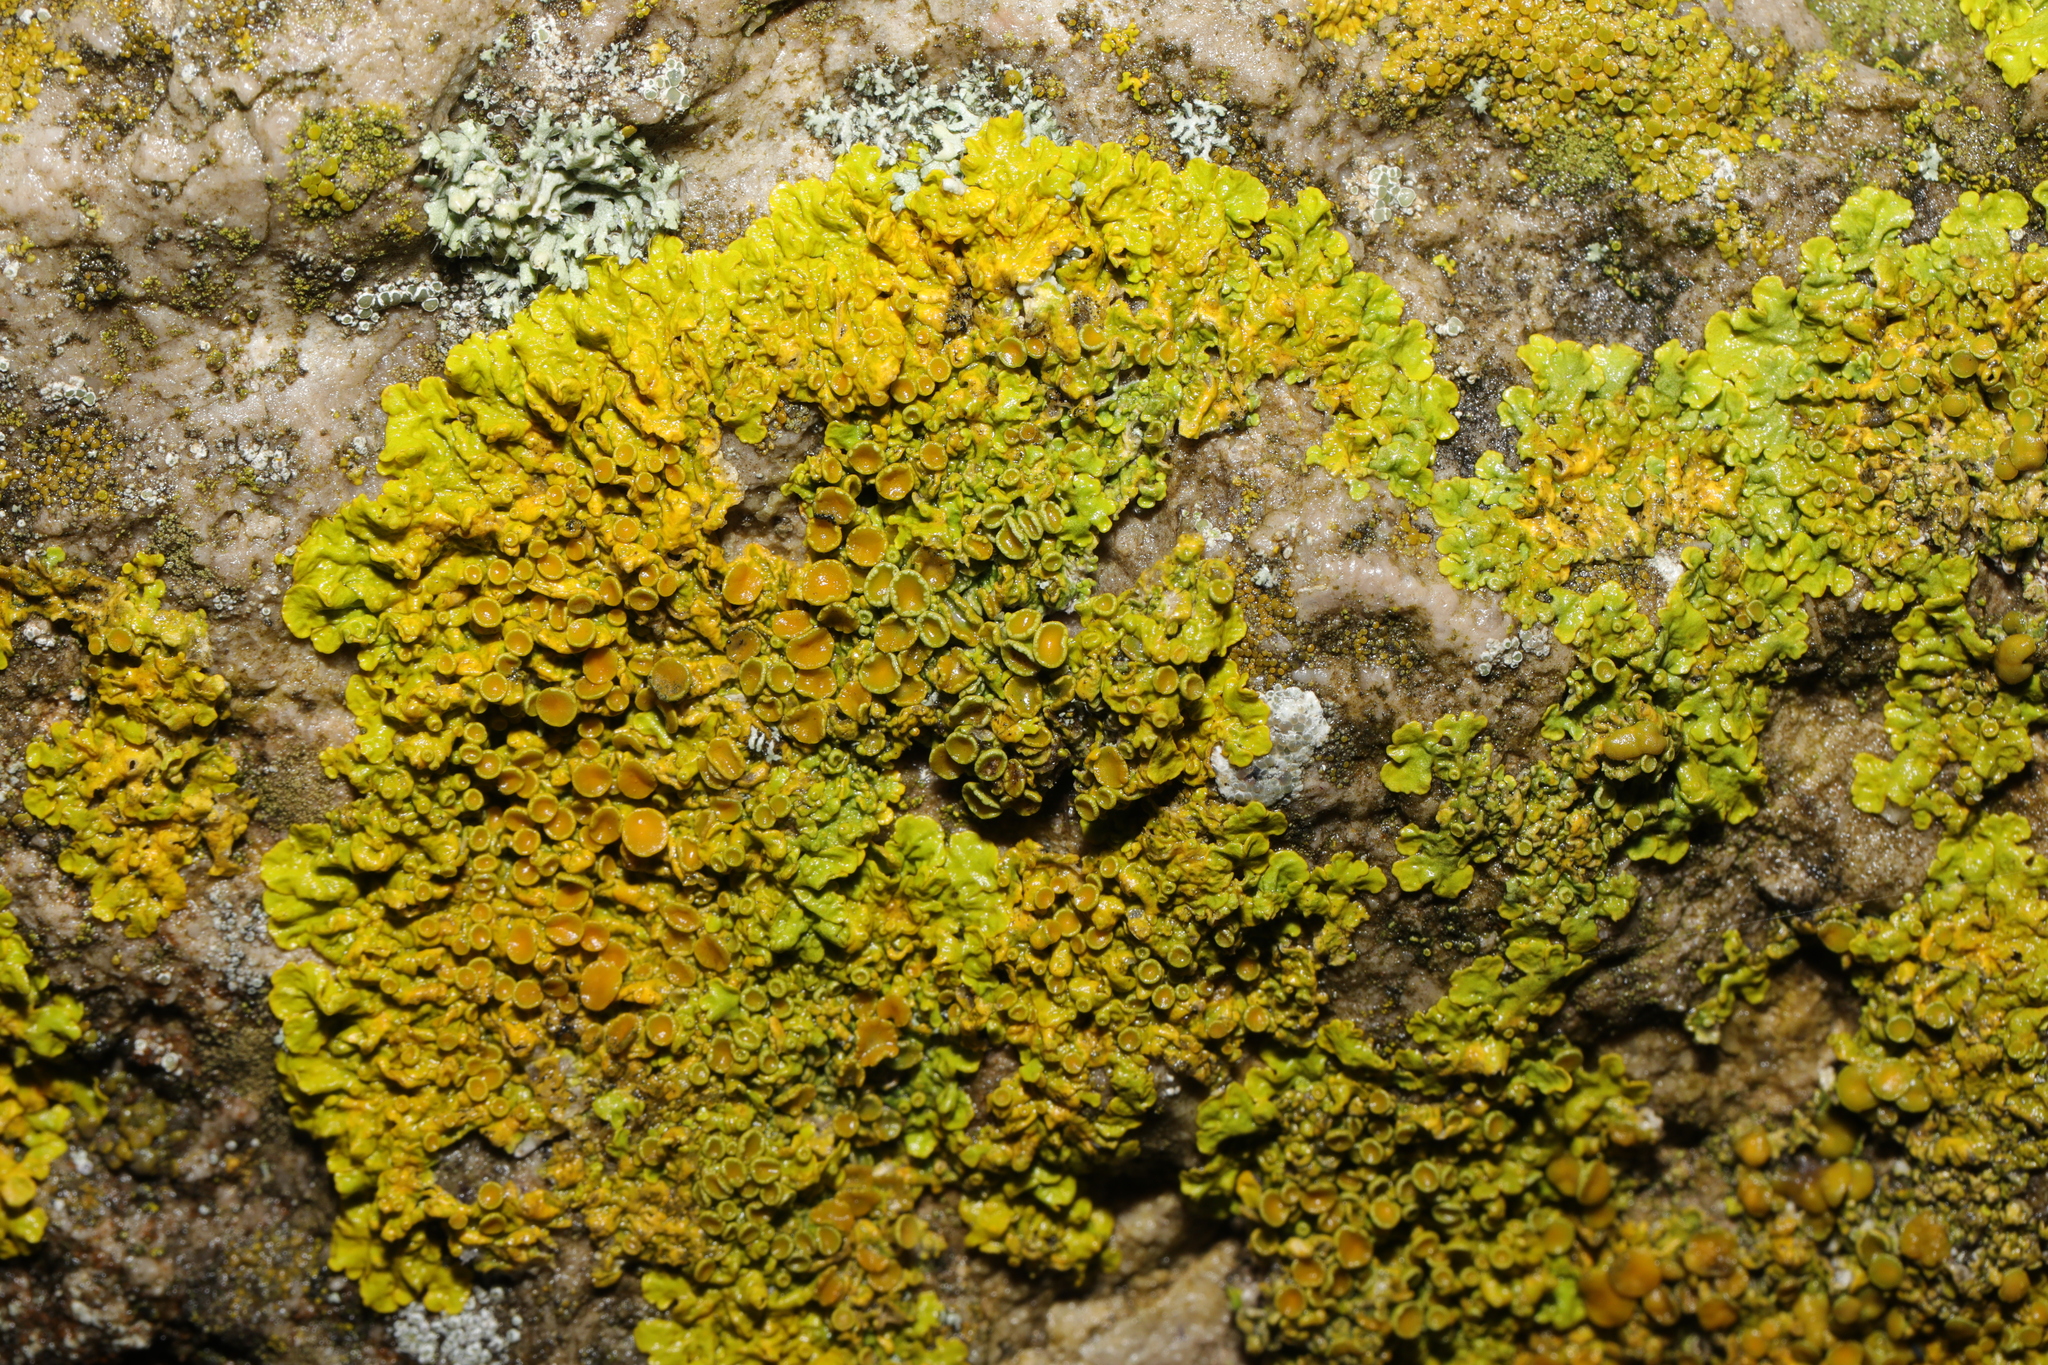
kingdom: Fungi
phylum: Ascomycota
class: Lecanoromycetes
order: Teloschistales
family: Teloschistaceae
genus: Xanthoria
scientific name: Xanthoria parietina
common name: Common orange lichen
